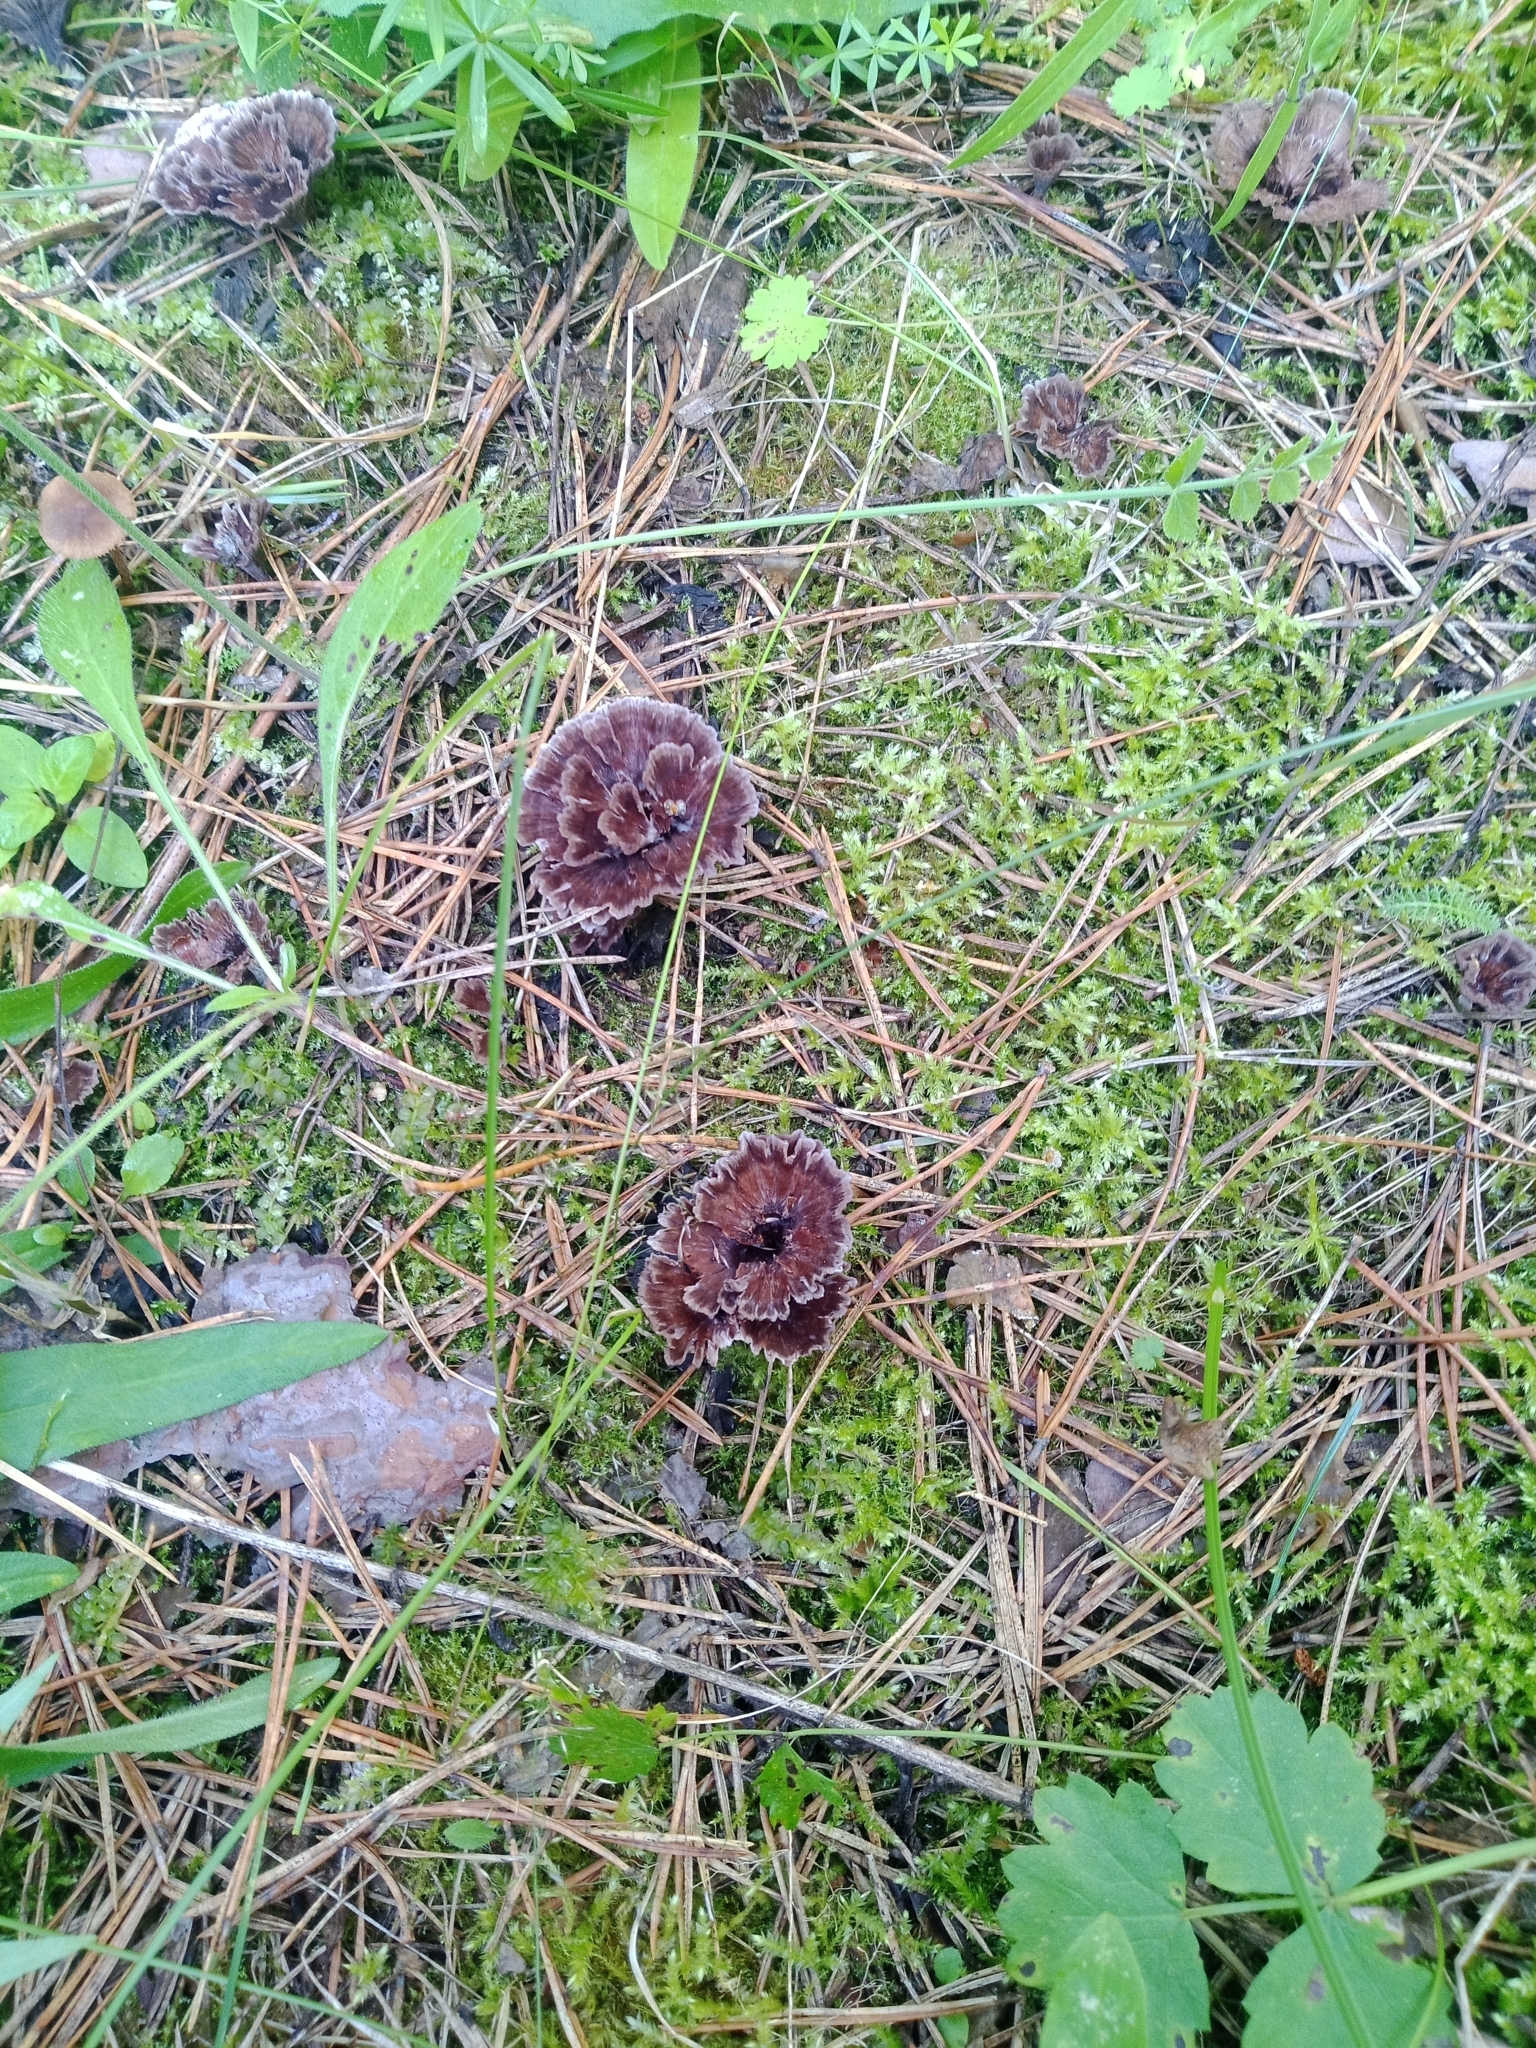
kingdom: Fungi
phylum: Basidiomycota
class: Agaricomycetes
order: Thelephorales
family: Thelephoraceae
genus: Thelephora
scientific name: Thelephora caryophyllea
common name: Carnation earthfan
